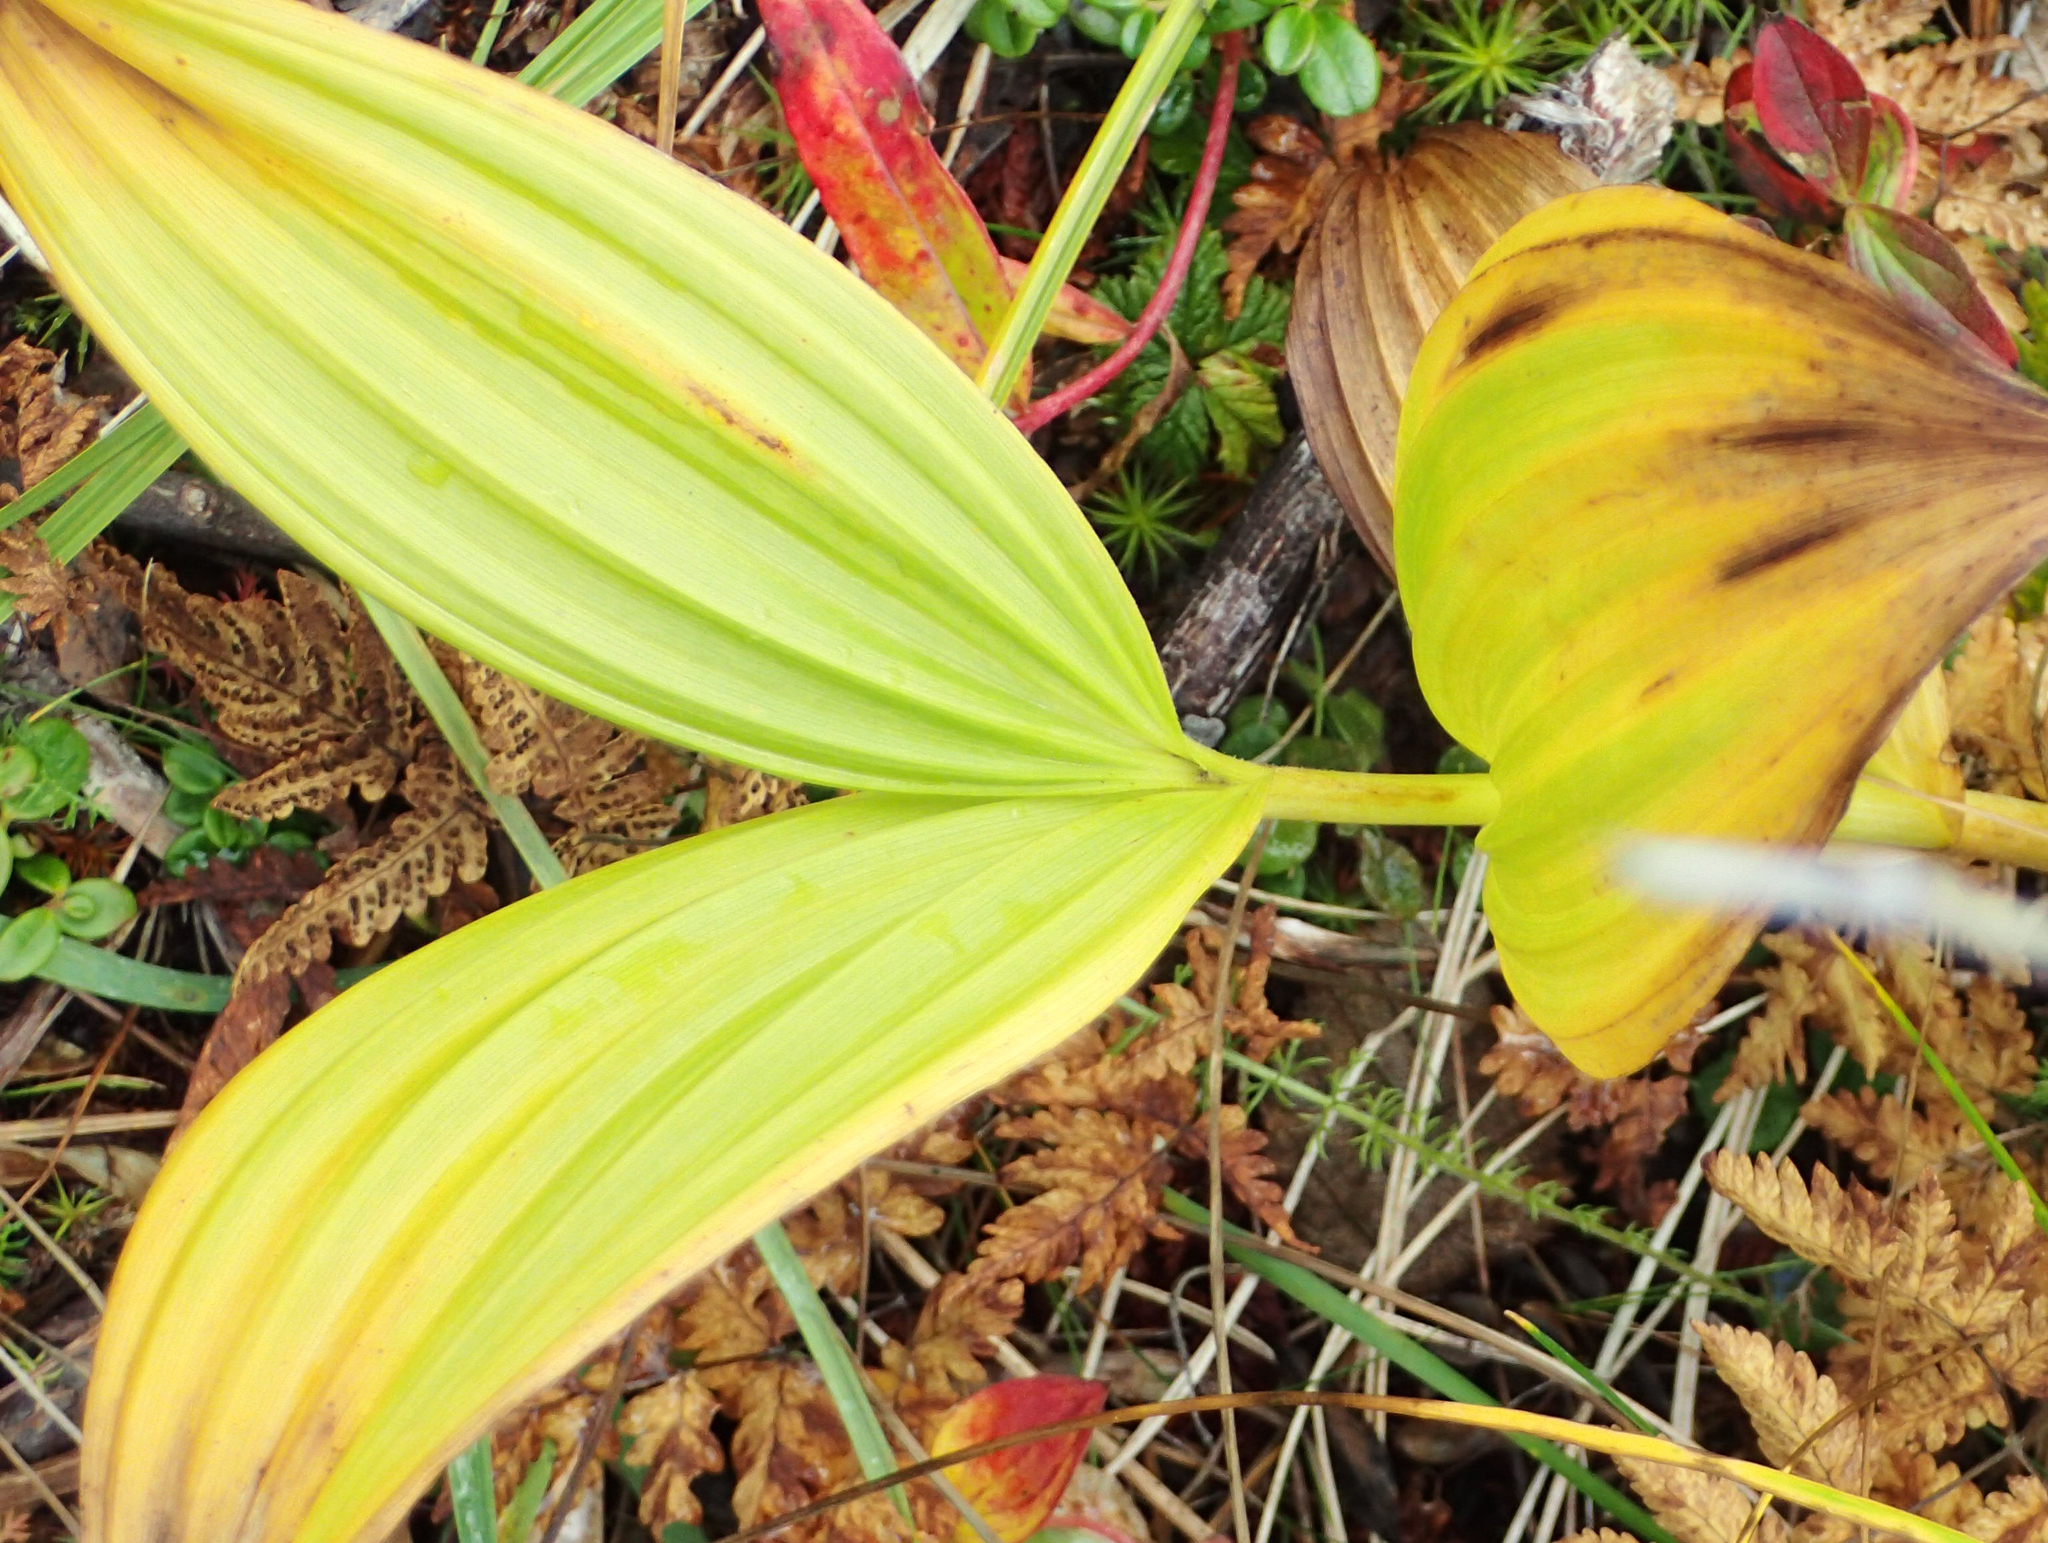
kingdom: Plantae
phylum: Tracheophyta
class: Liliopsida
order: Liliales
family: Melanthiaceae
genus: Veratrum
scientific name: Veratrum viride
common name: American false hellebore
